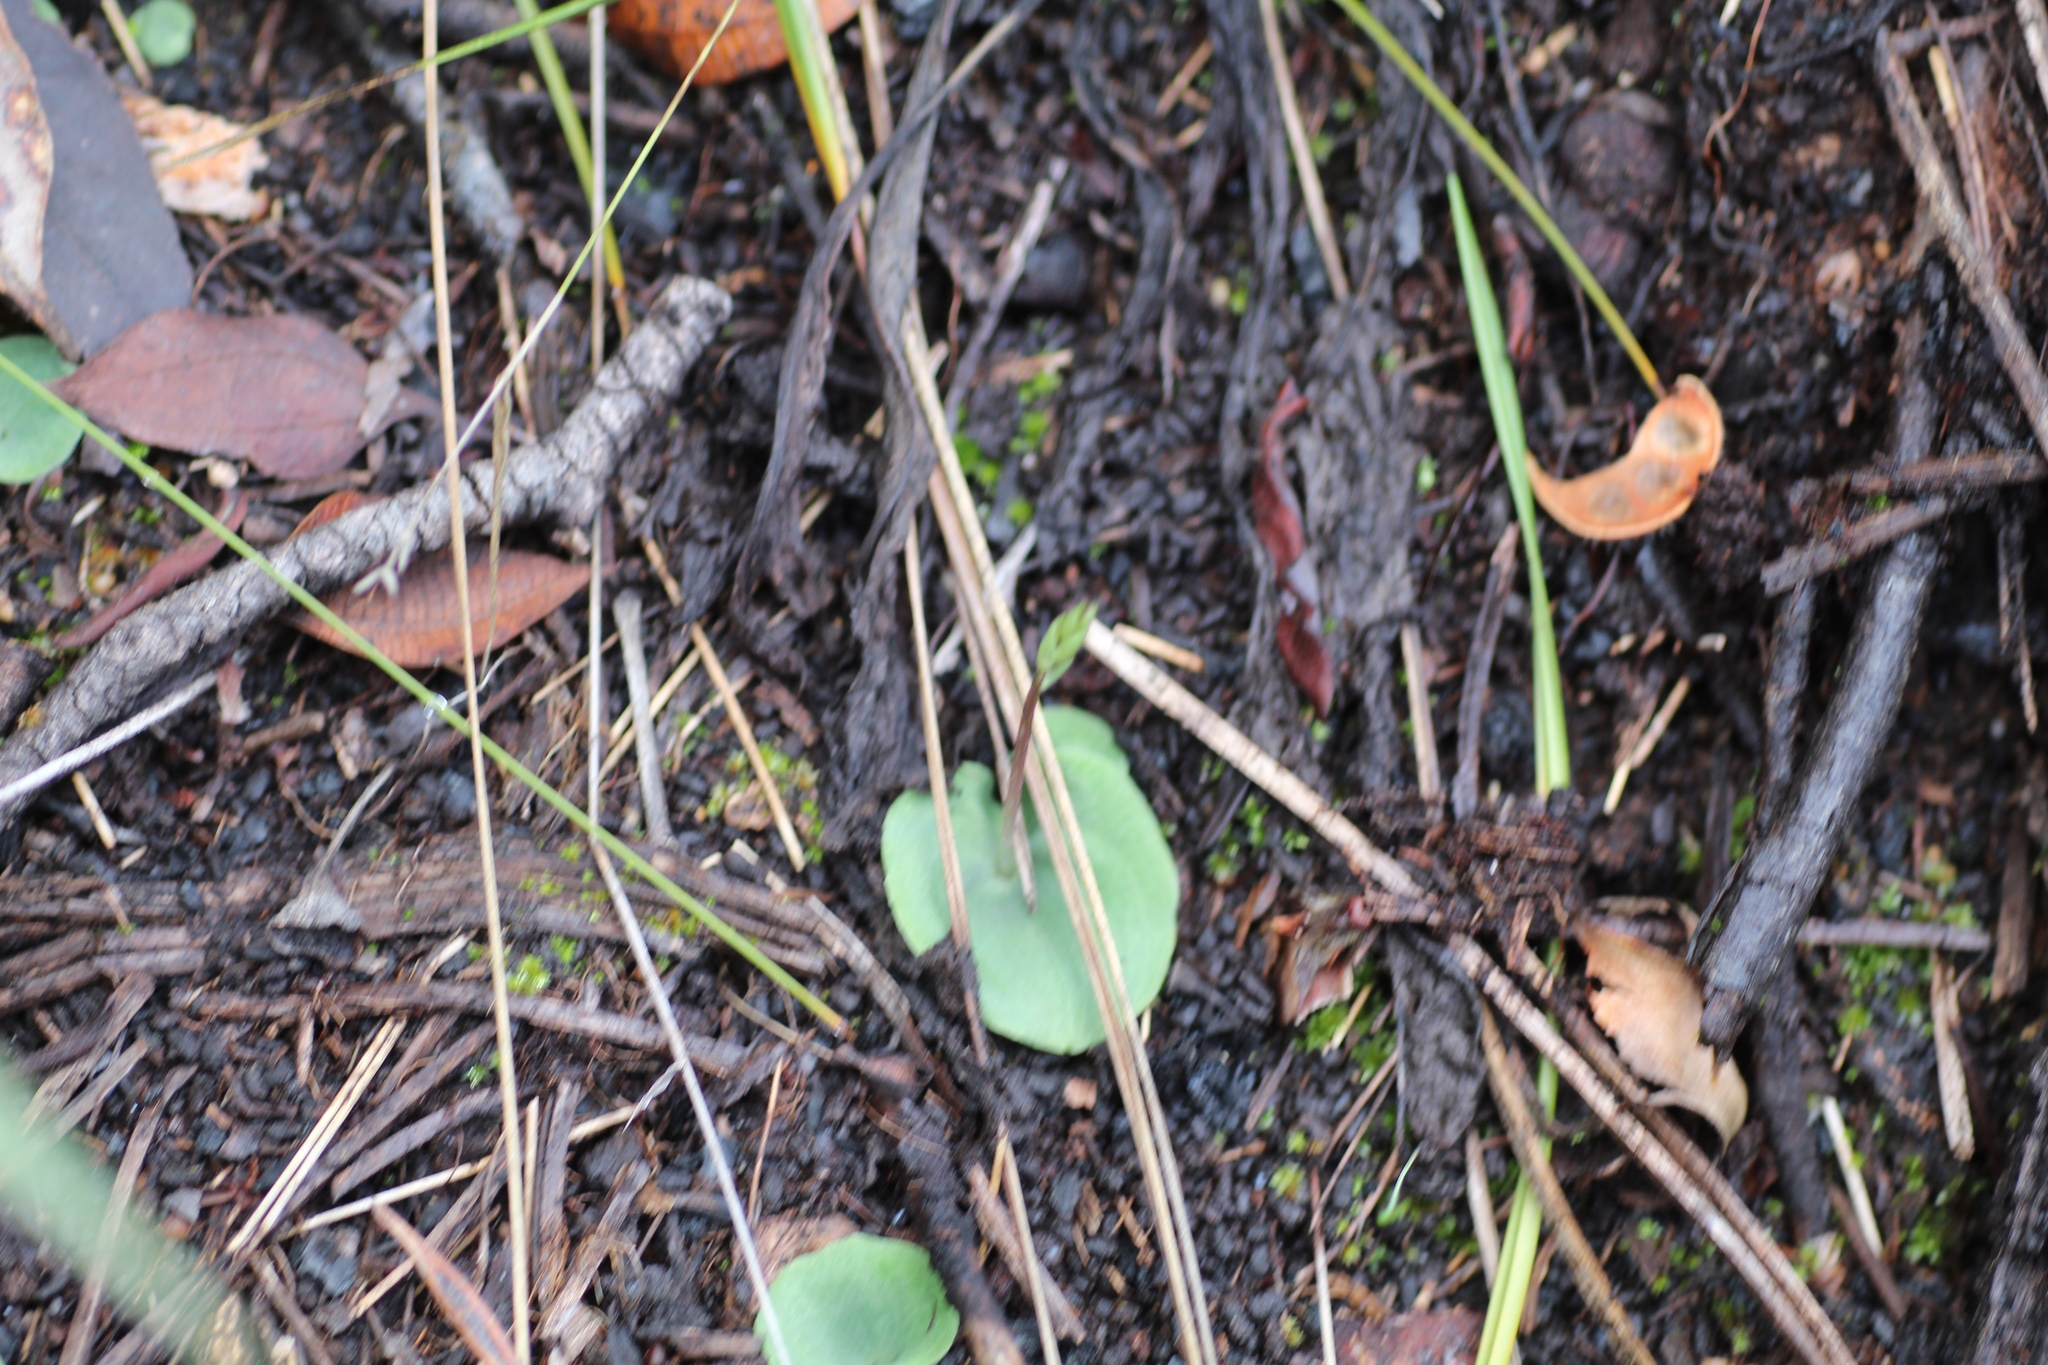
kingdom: Plantae
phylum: Tracheophyta
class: Liliopsida
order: Asparagales
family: Orchidaceae
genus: Cyrtostylis
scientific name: Cyrtostylis huegelii
